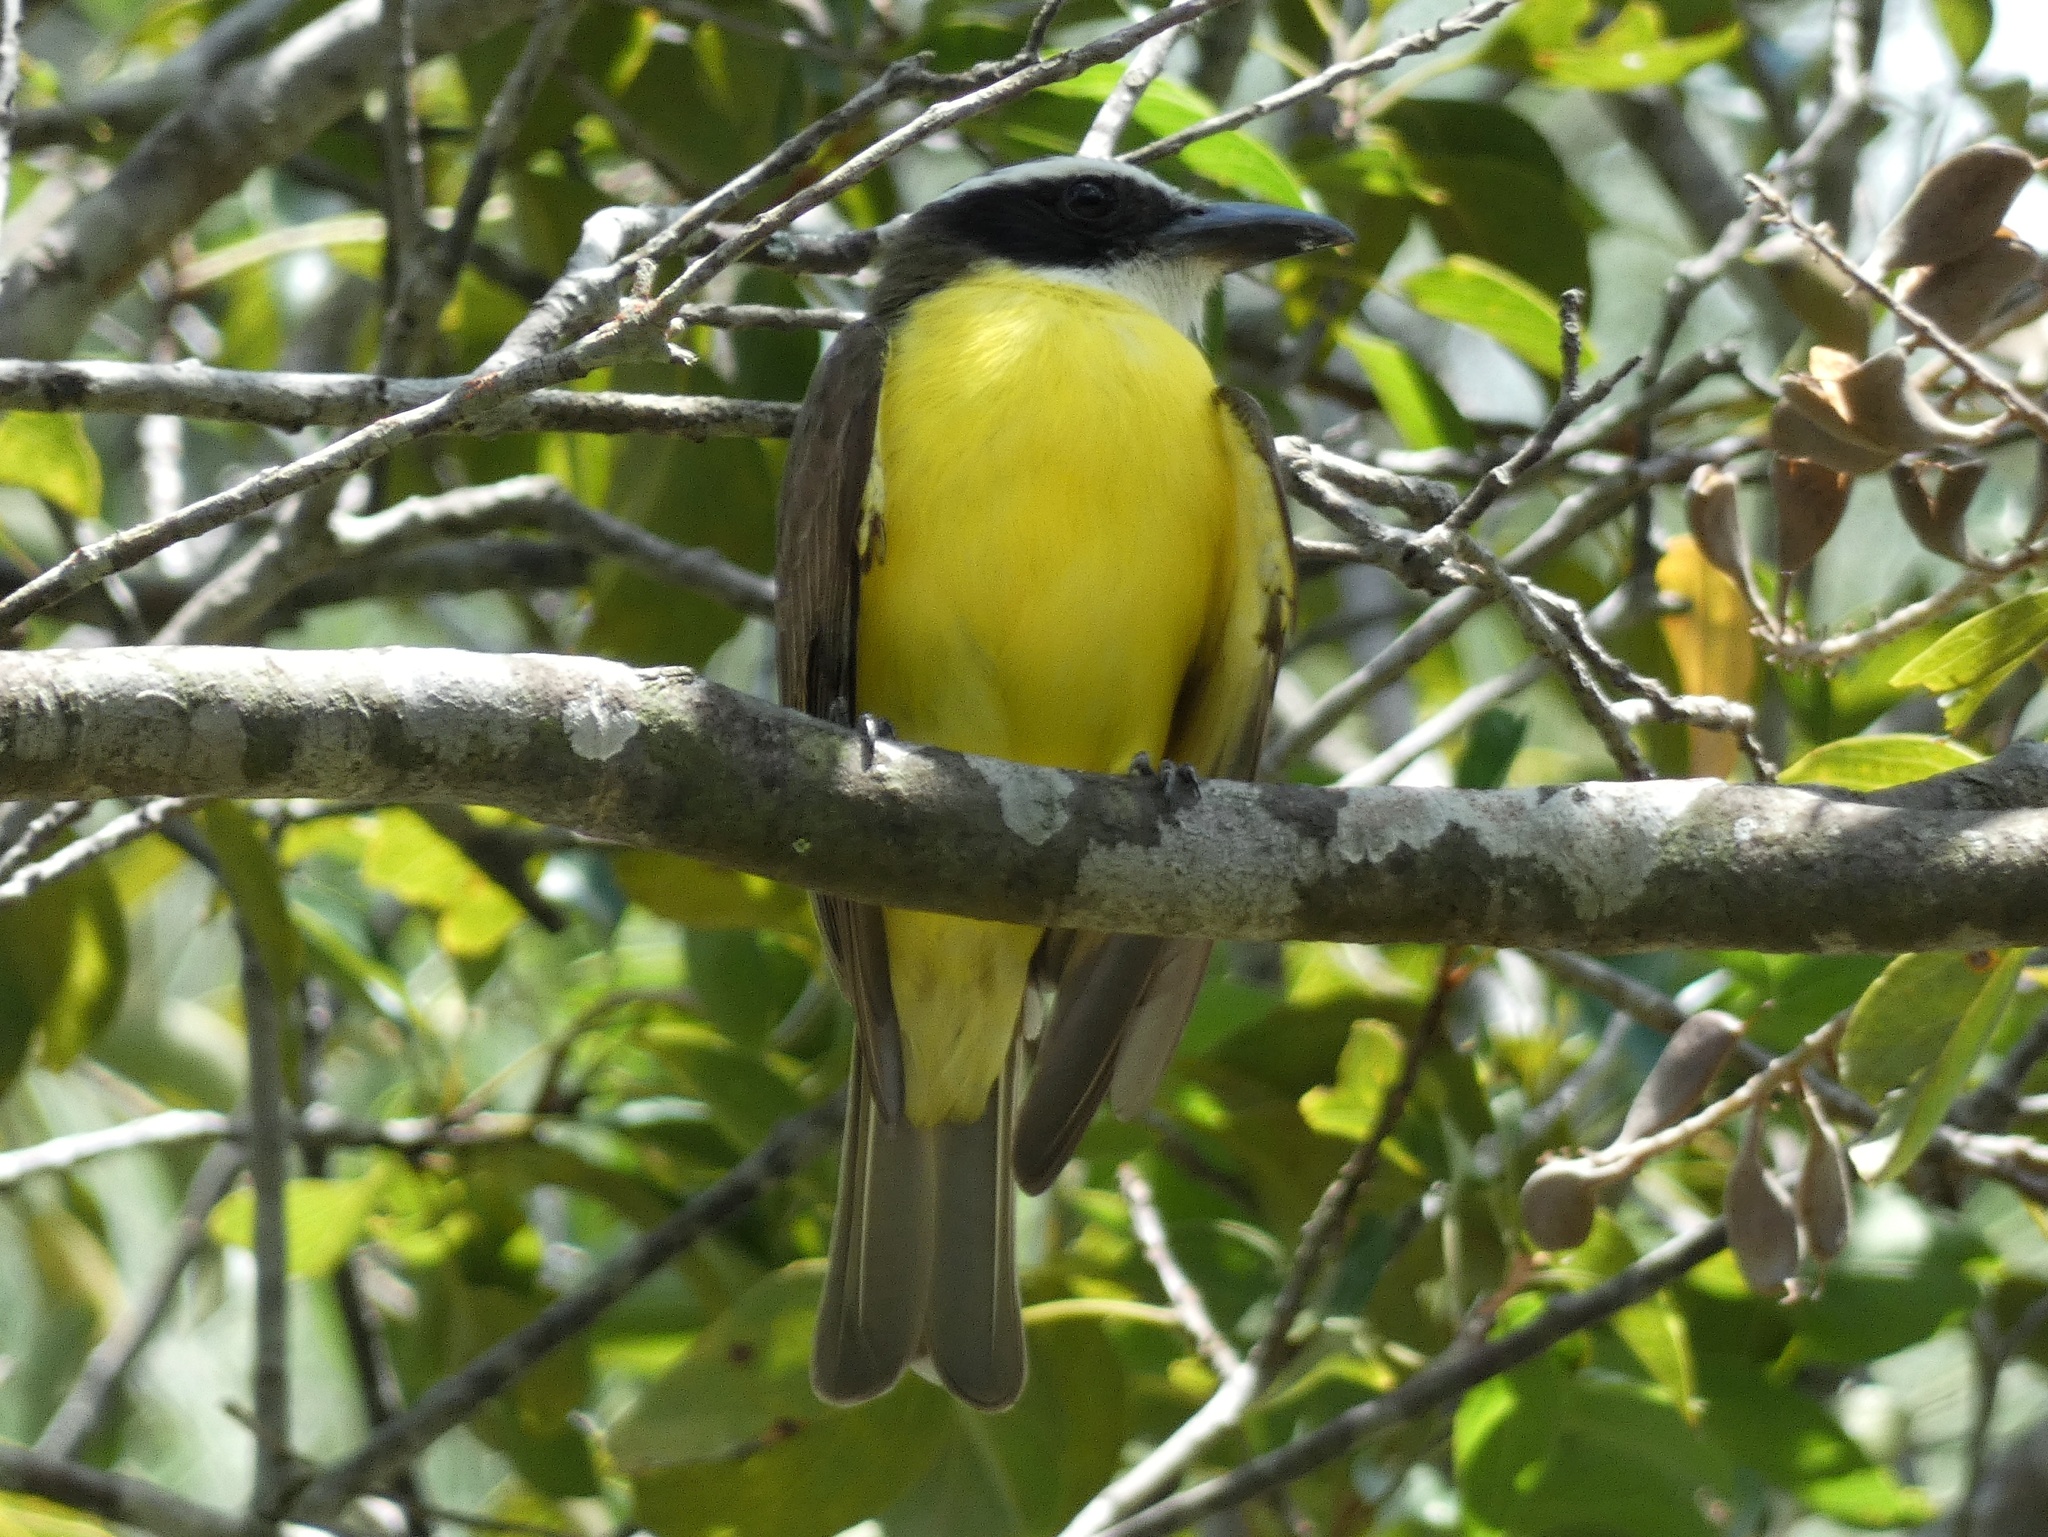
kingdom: Animalia
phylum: Chordata
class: Aves
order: Passeriformes
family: Tyrannidae
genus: Megarynchus
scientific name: Megarynchus pitangua
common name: Boat-billed flycatcher
